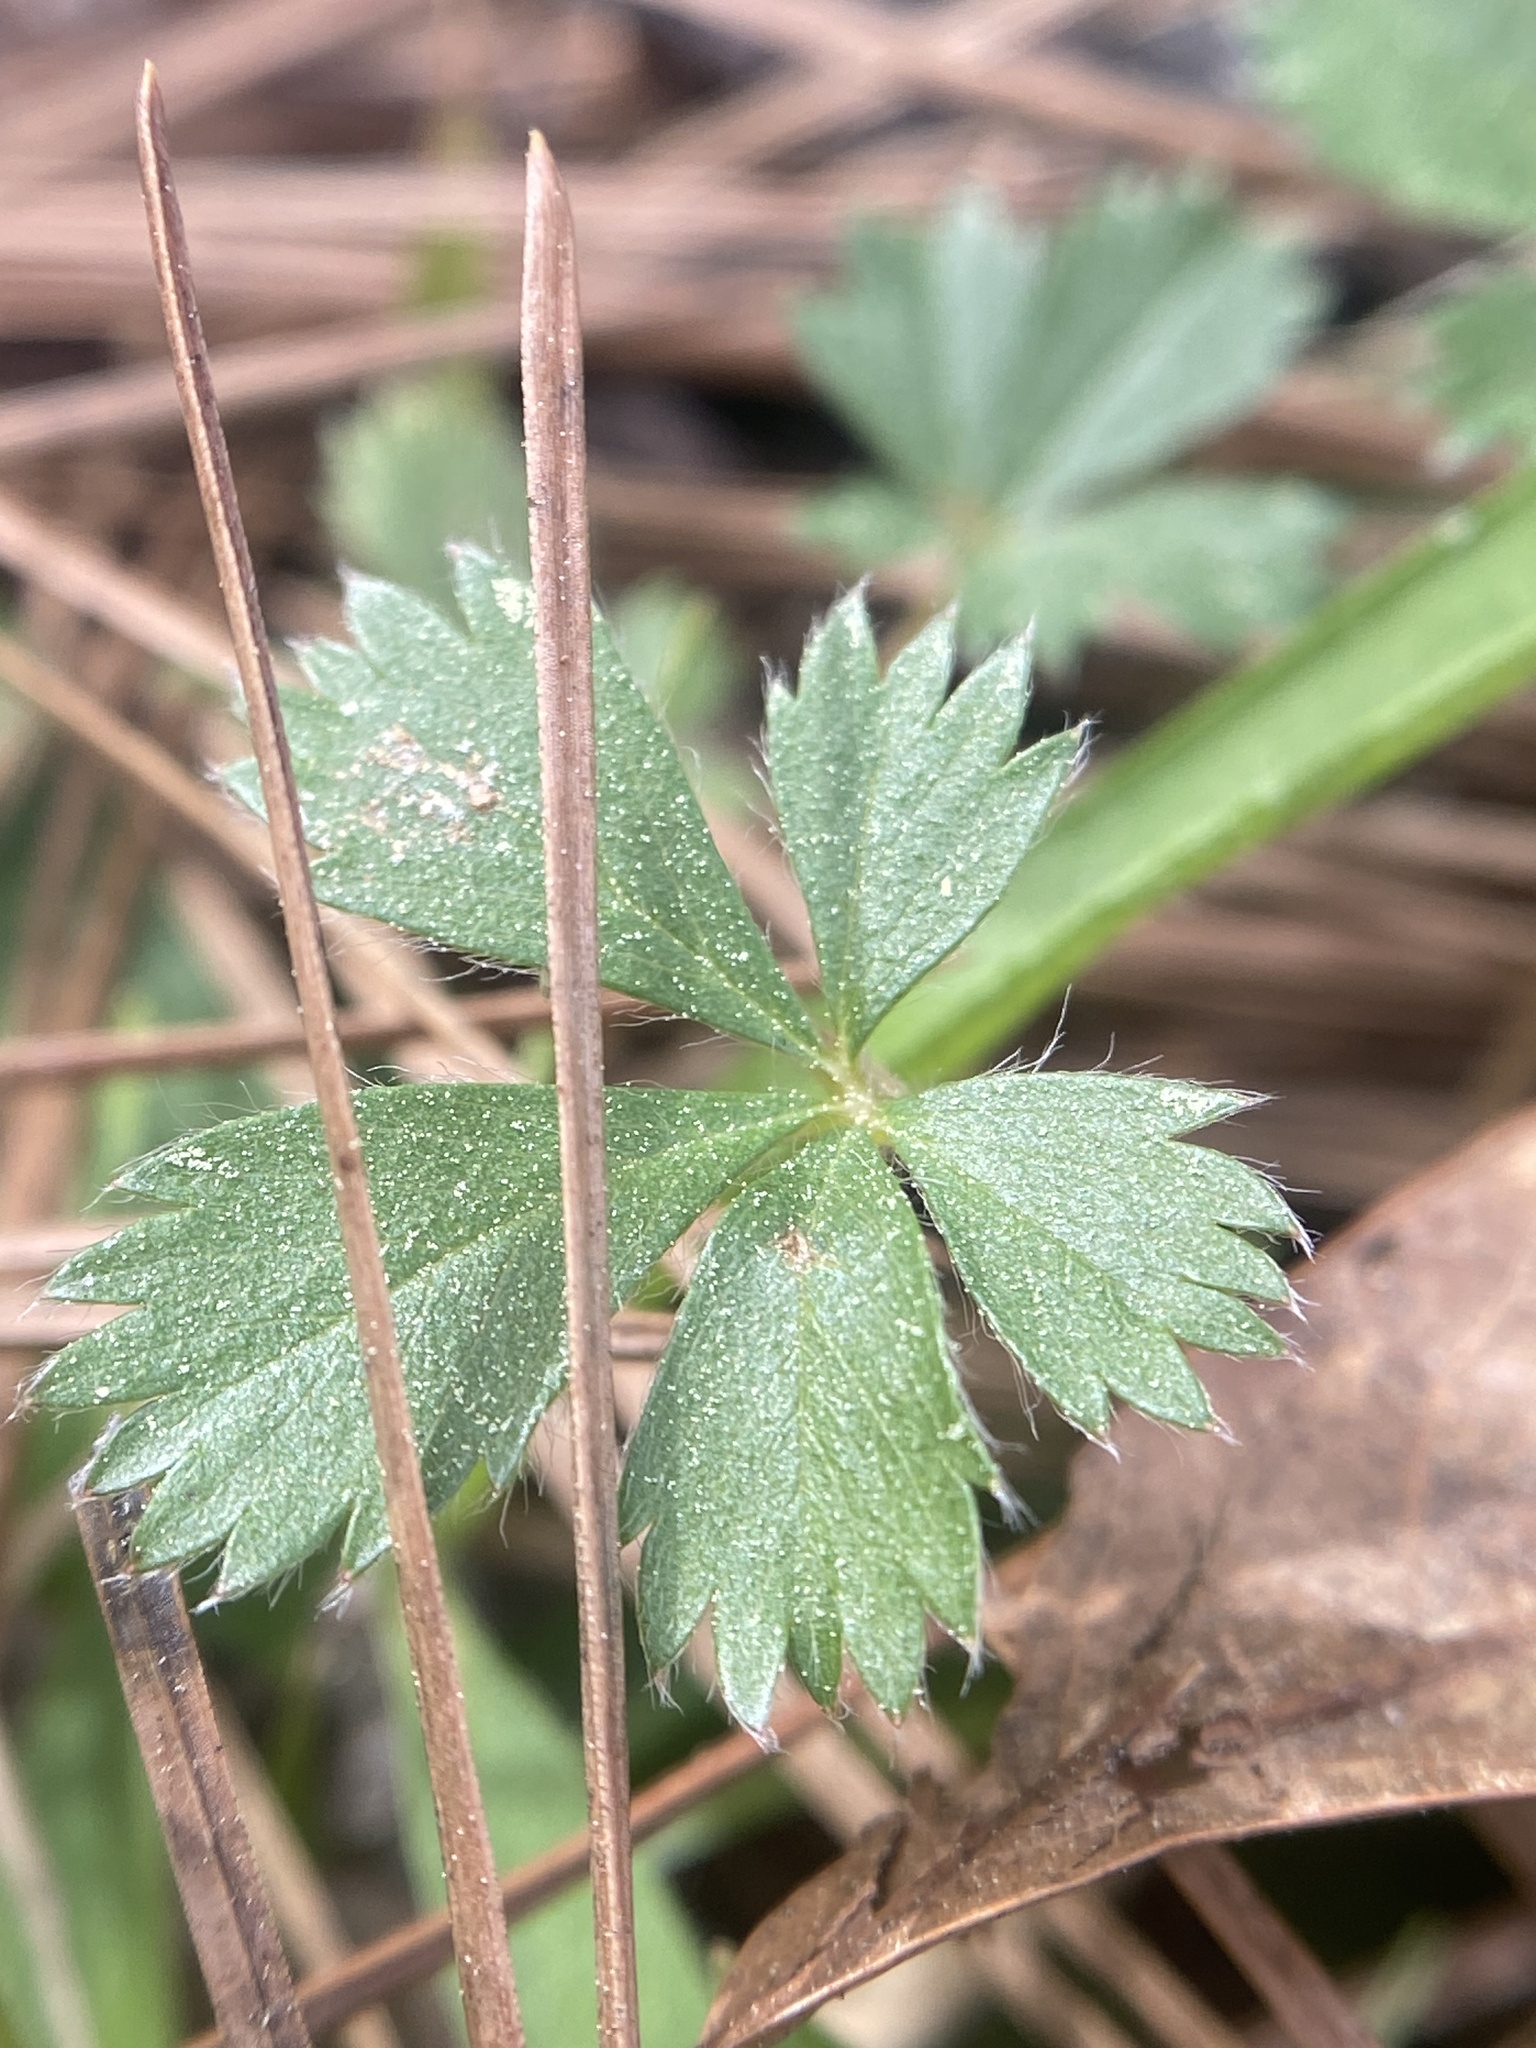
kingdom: Plantae
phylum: Tracheophyta
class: Magnoliopsida
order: Rosales
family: Rosaceae
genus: Potentilla
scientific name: Potentilla canadensis
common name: Canada cinquefoil
